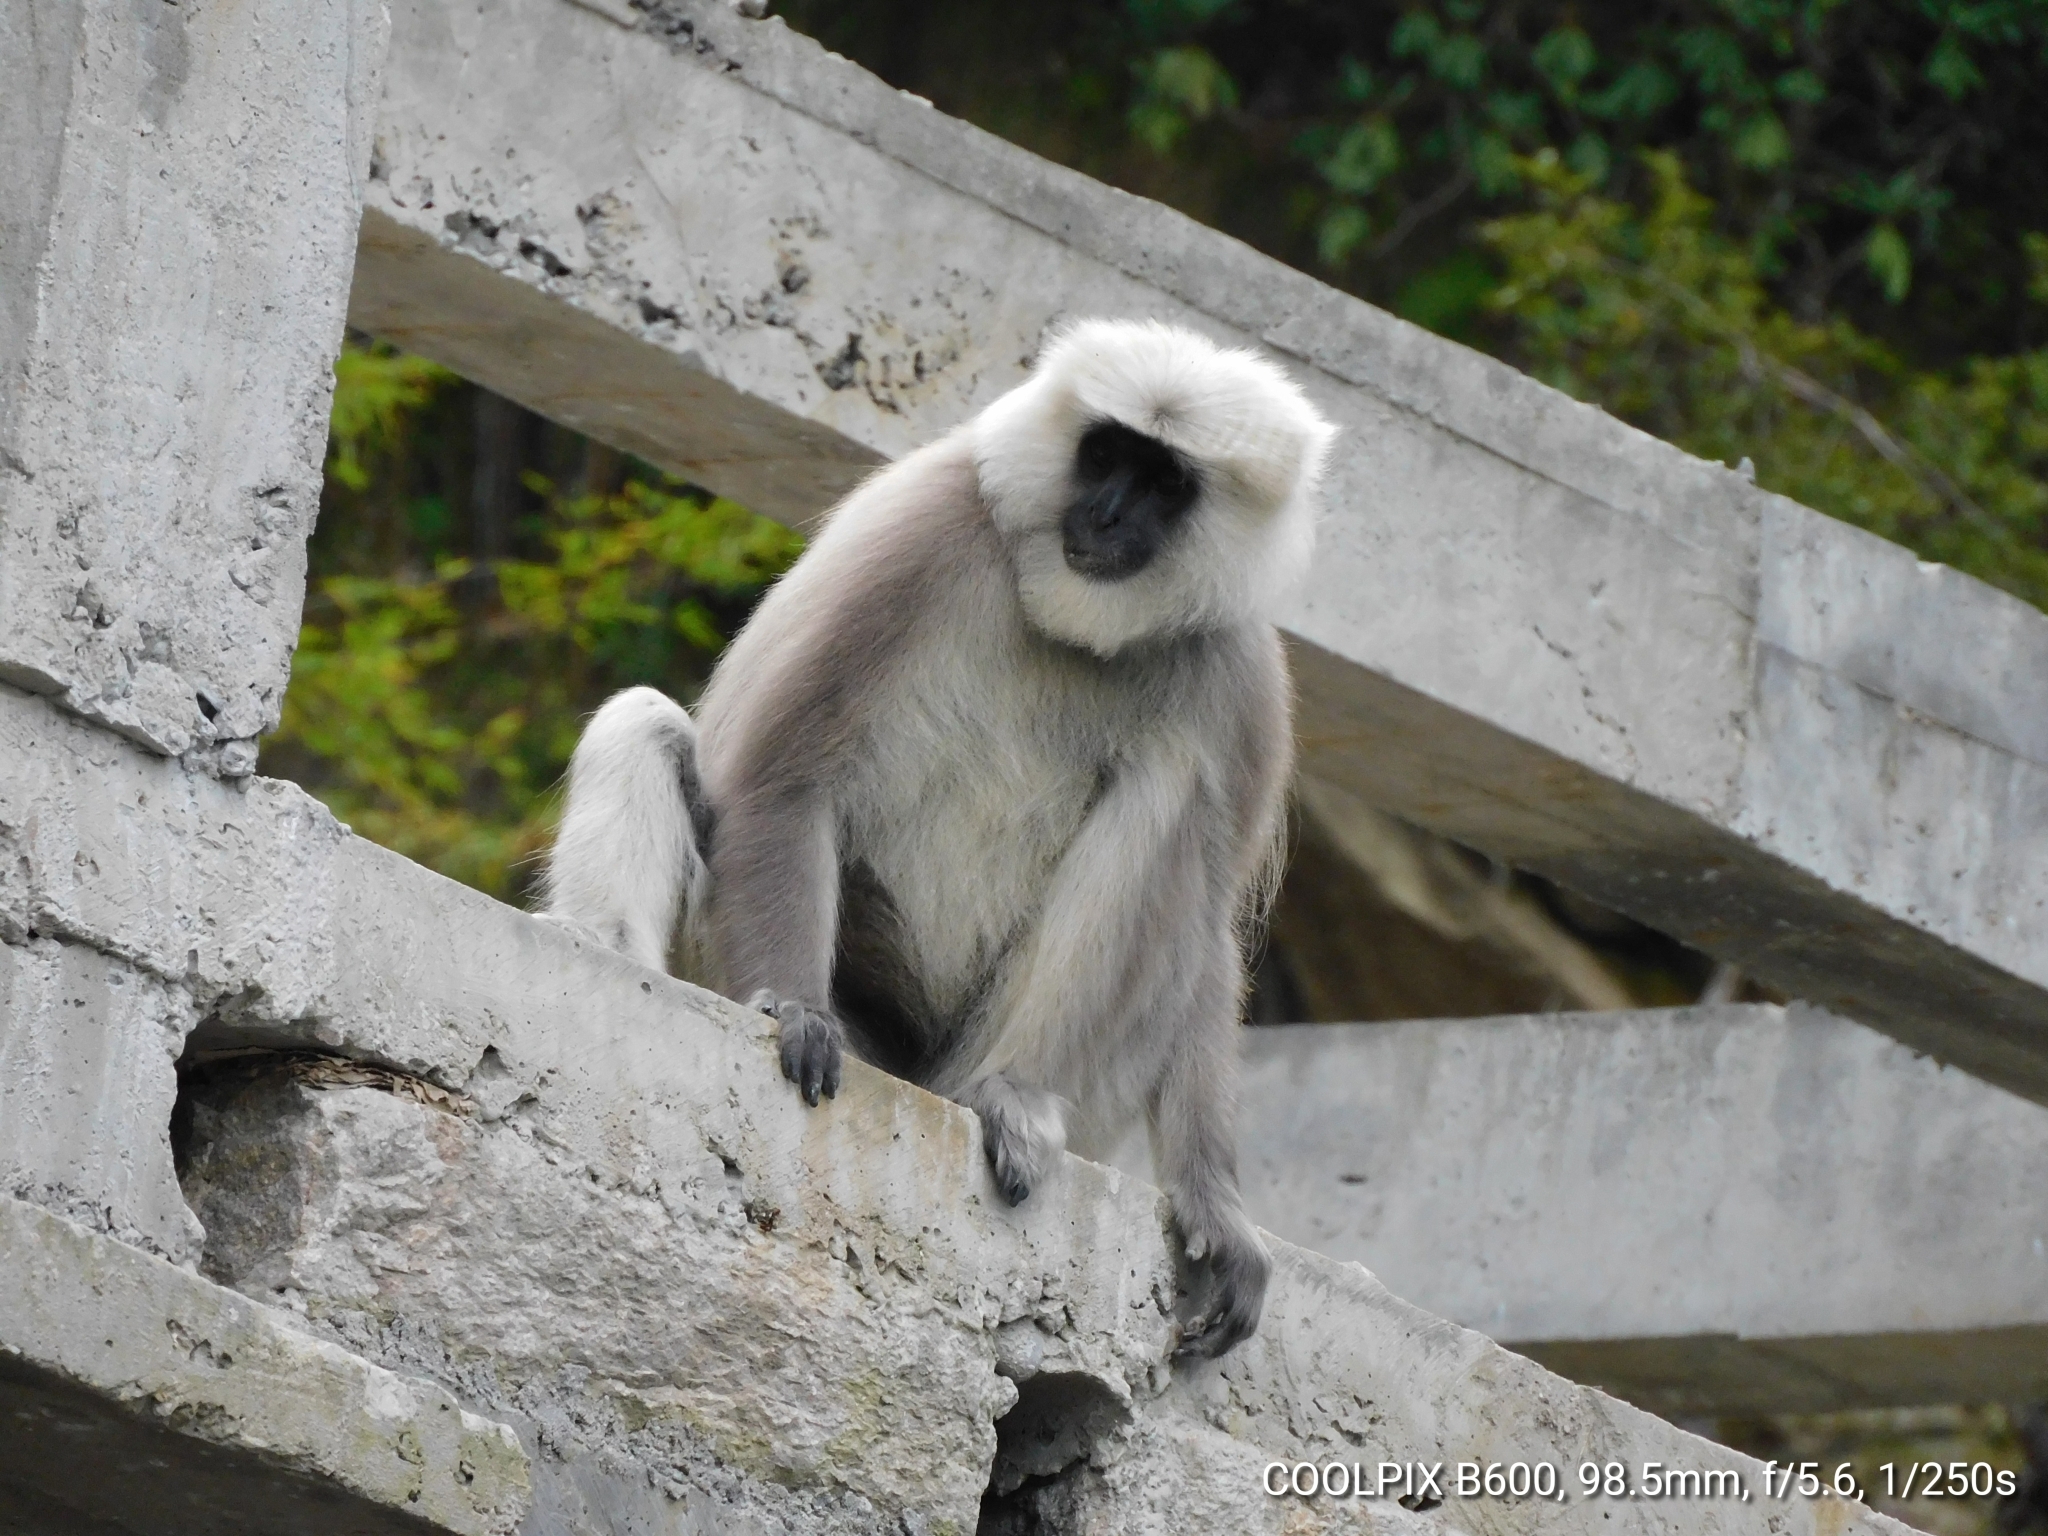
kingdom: Animalia
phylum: Chordata
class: Mammalia
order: Primates
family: Cercopithecidae
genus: Semnopithecus
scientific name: Semnopithecus schistaceus
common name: Nepal gray langur
